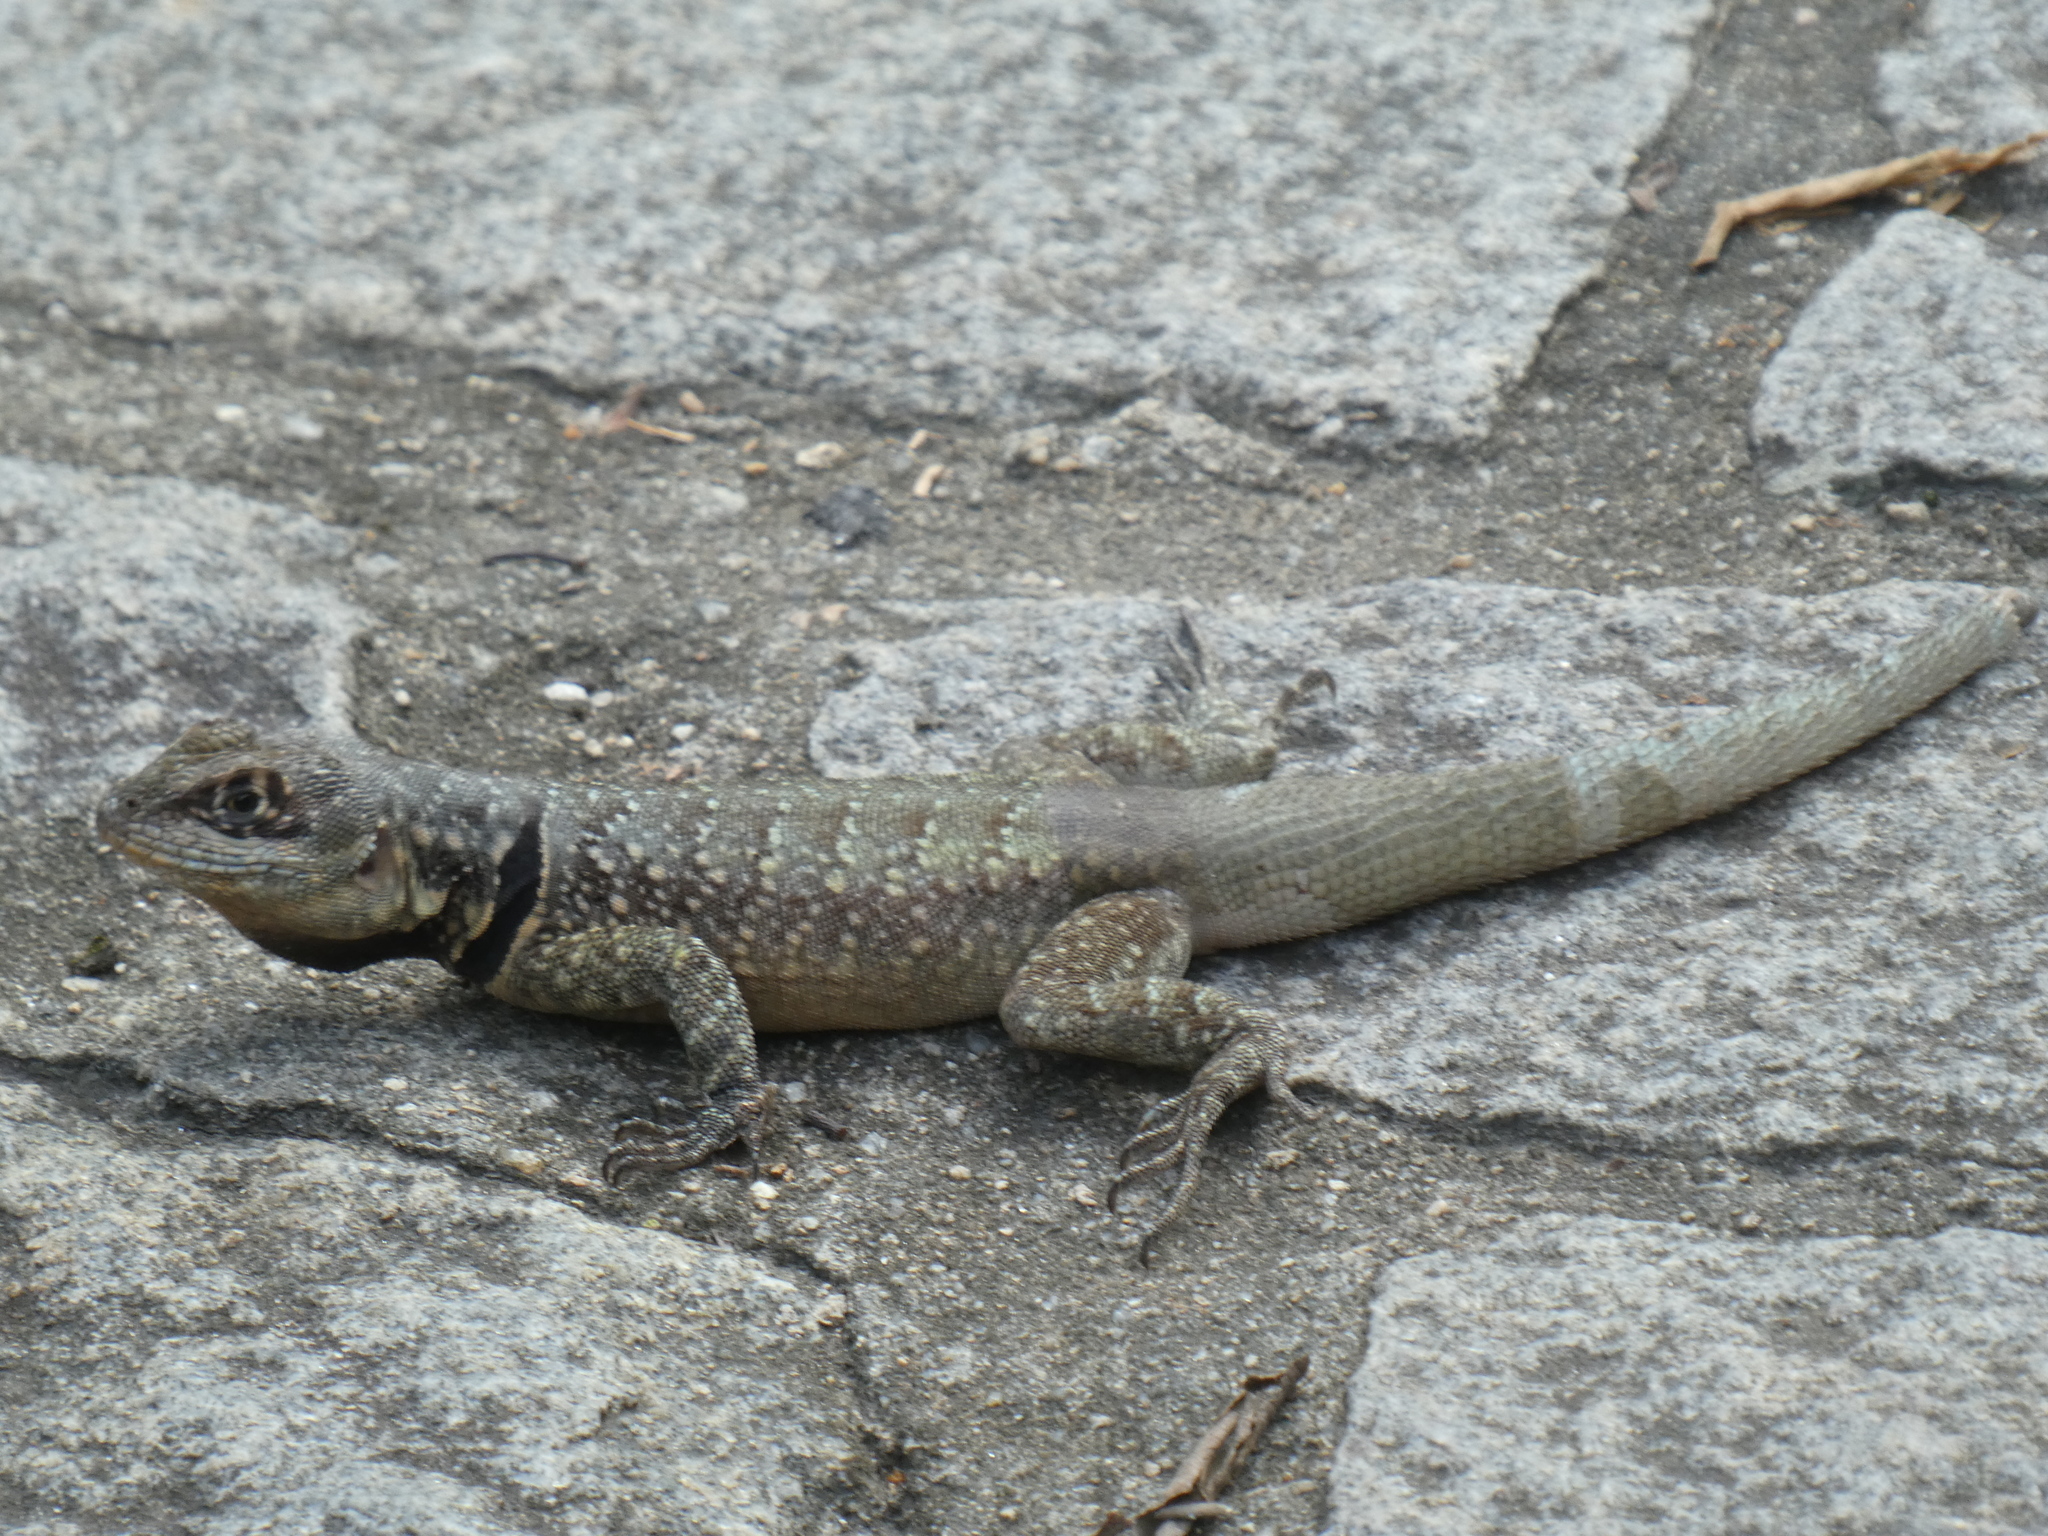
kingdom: Animalia
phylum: Chordata
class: Squamata
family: Tropiduridae
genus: Tropidurus
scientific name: Tropidurus torquatus
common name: Amazon lava lizard
